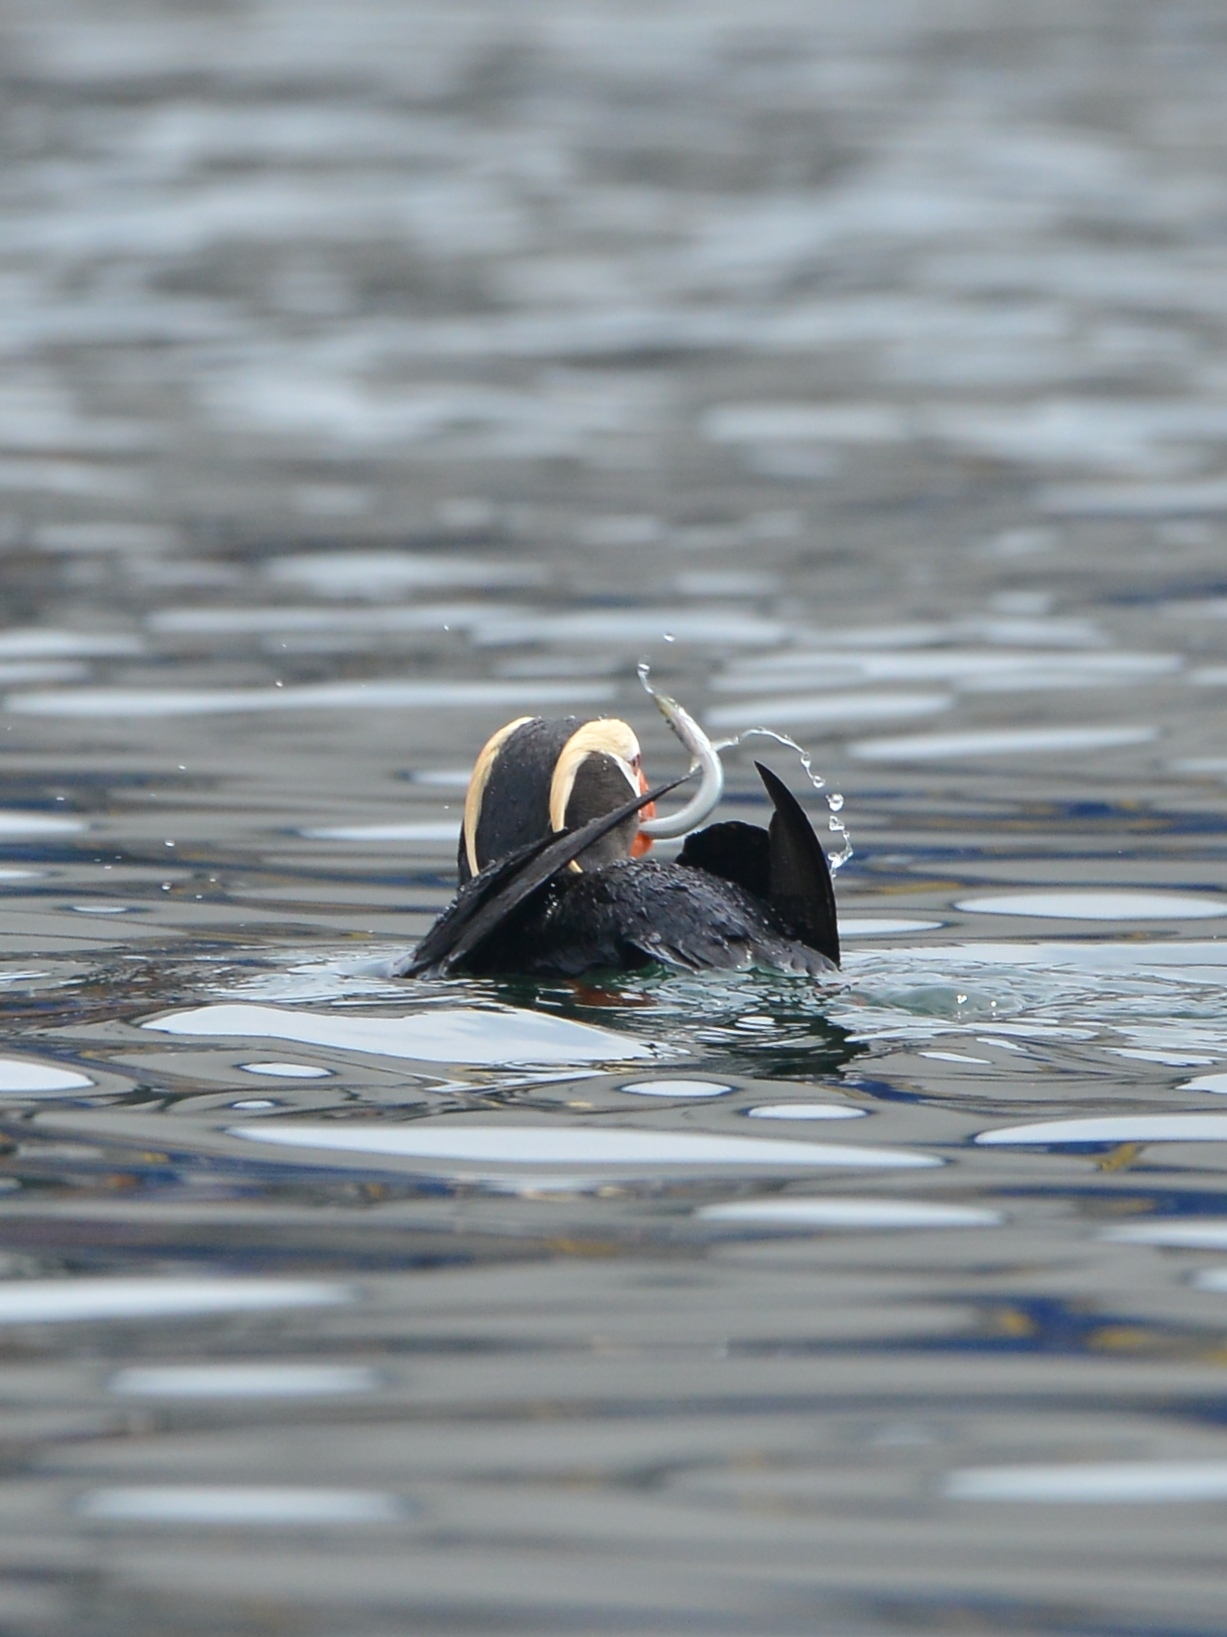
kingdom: Animalia
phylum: Chordata
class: Aves
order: Charadriiformes
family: Alcidae
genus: Fratercula
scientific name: Fratercula cirrhata
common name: Tufted puffin
